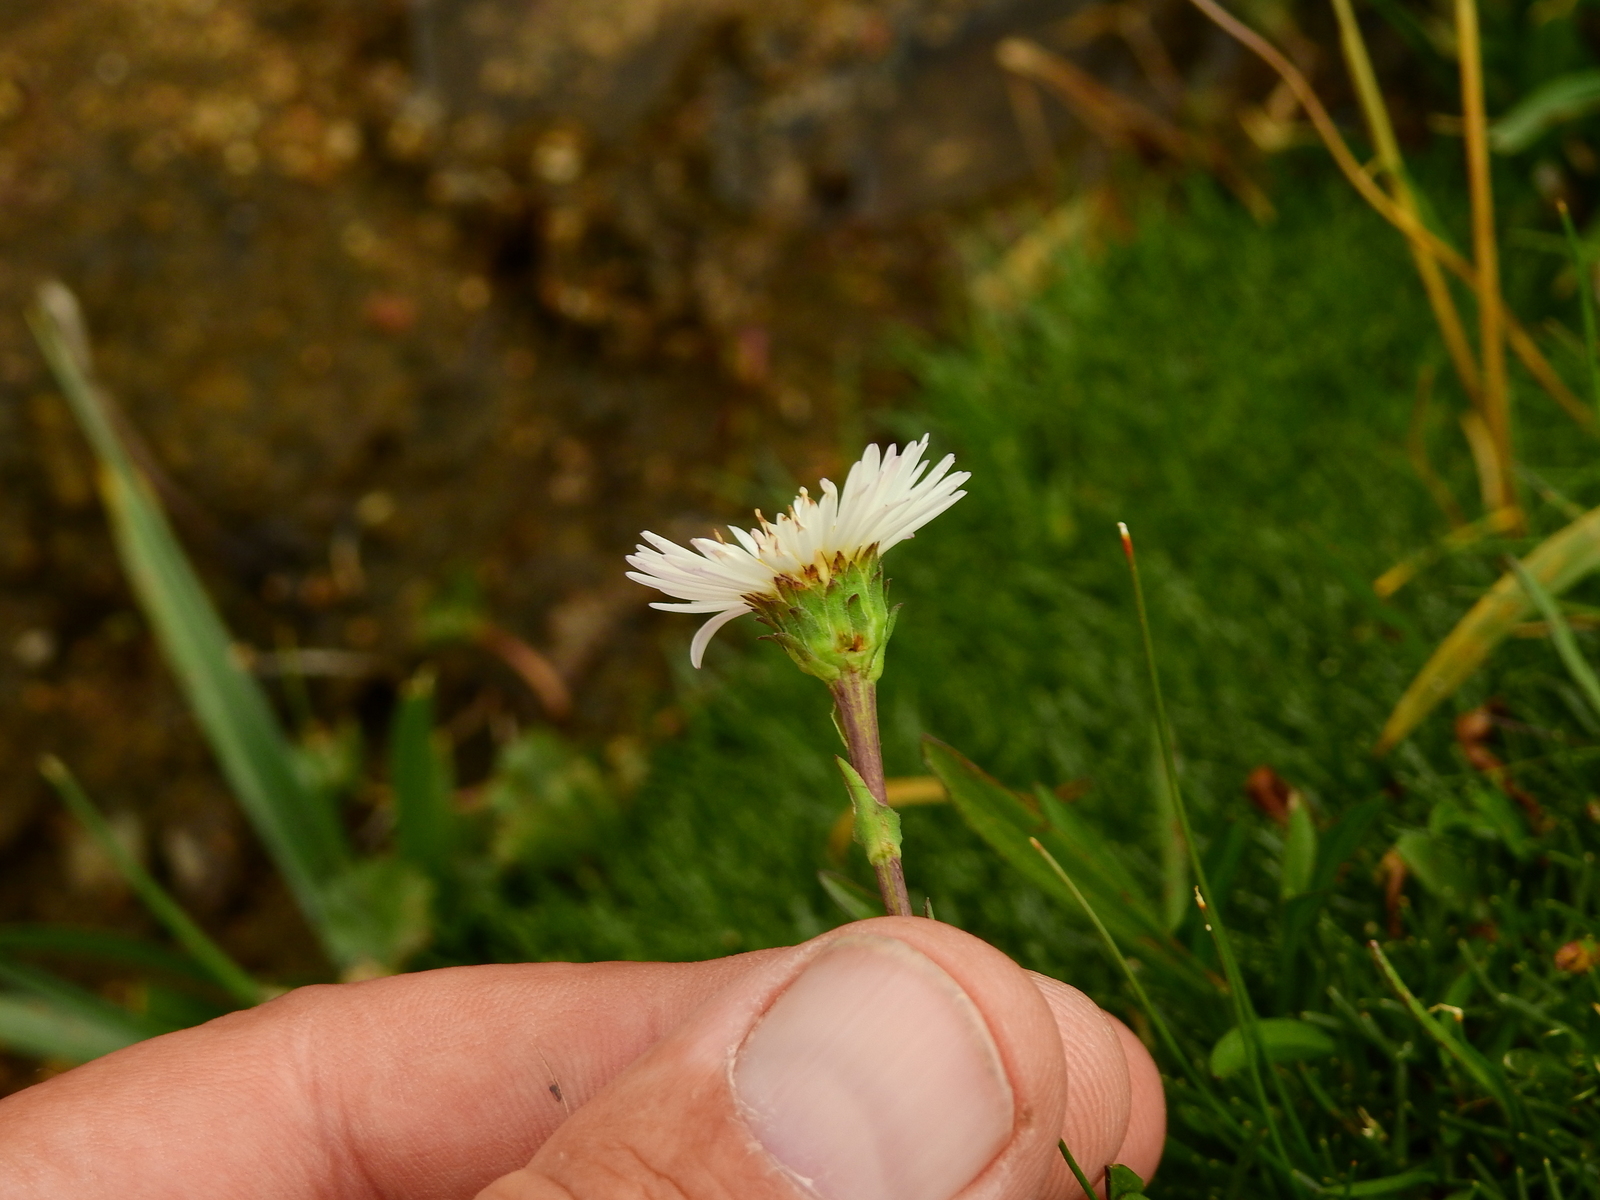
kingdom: Plantae
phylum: Tracheophyta
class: Magnoliopsida
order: Asterales
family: Asteraceae
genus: Symphyotrichum
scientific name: Symphyotrichum glabrifolium
